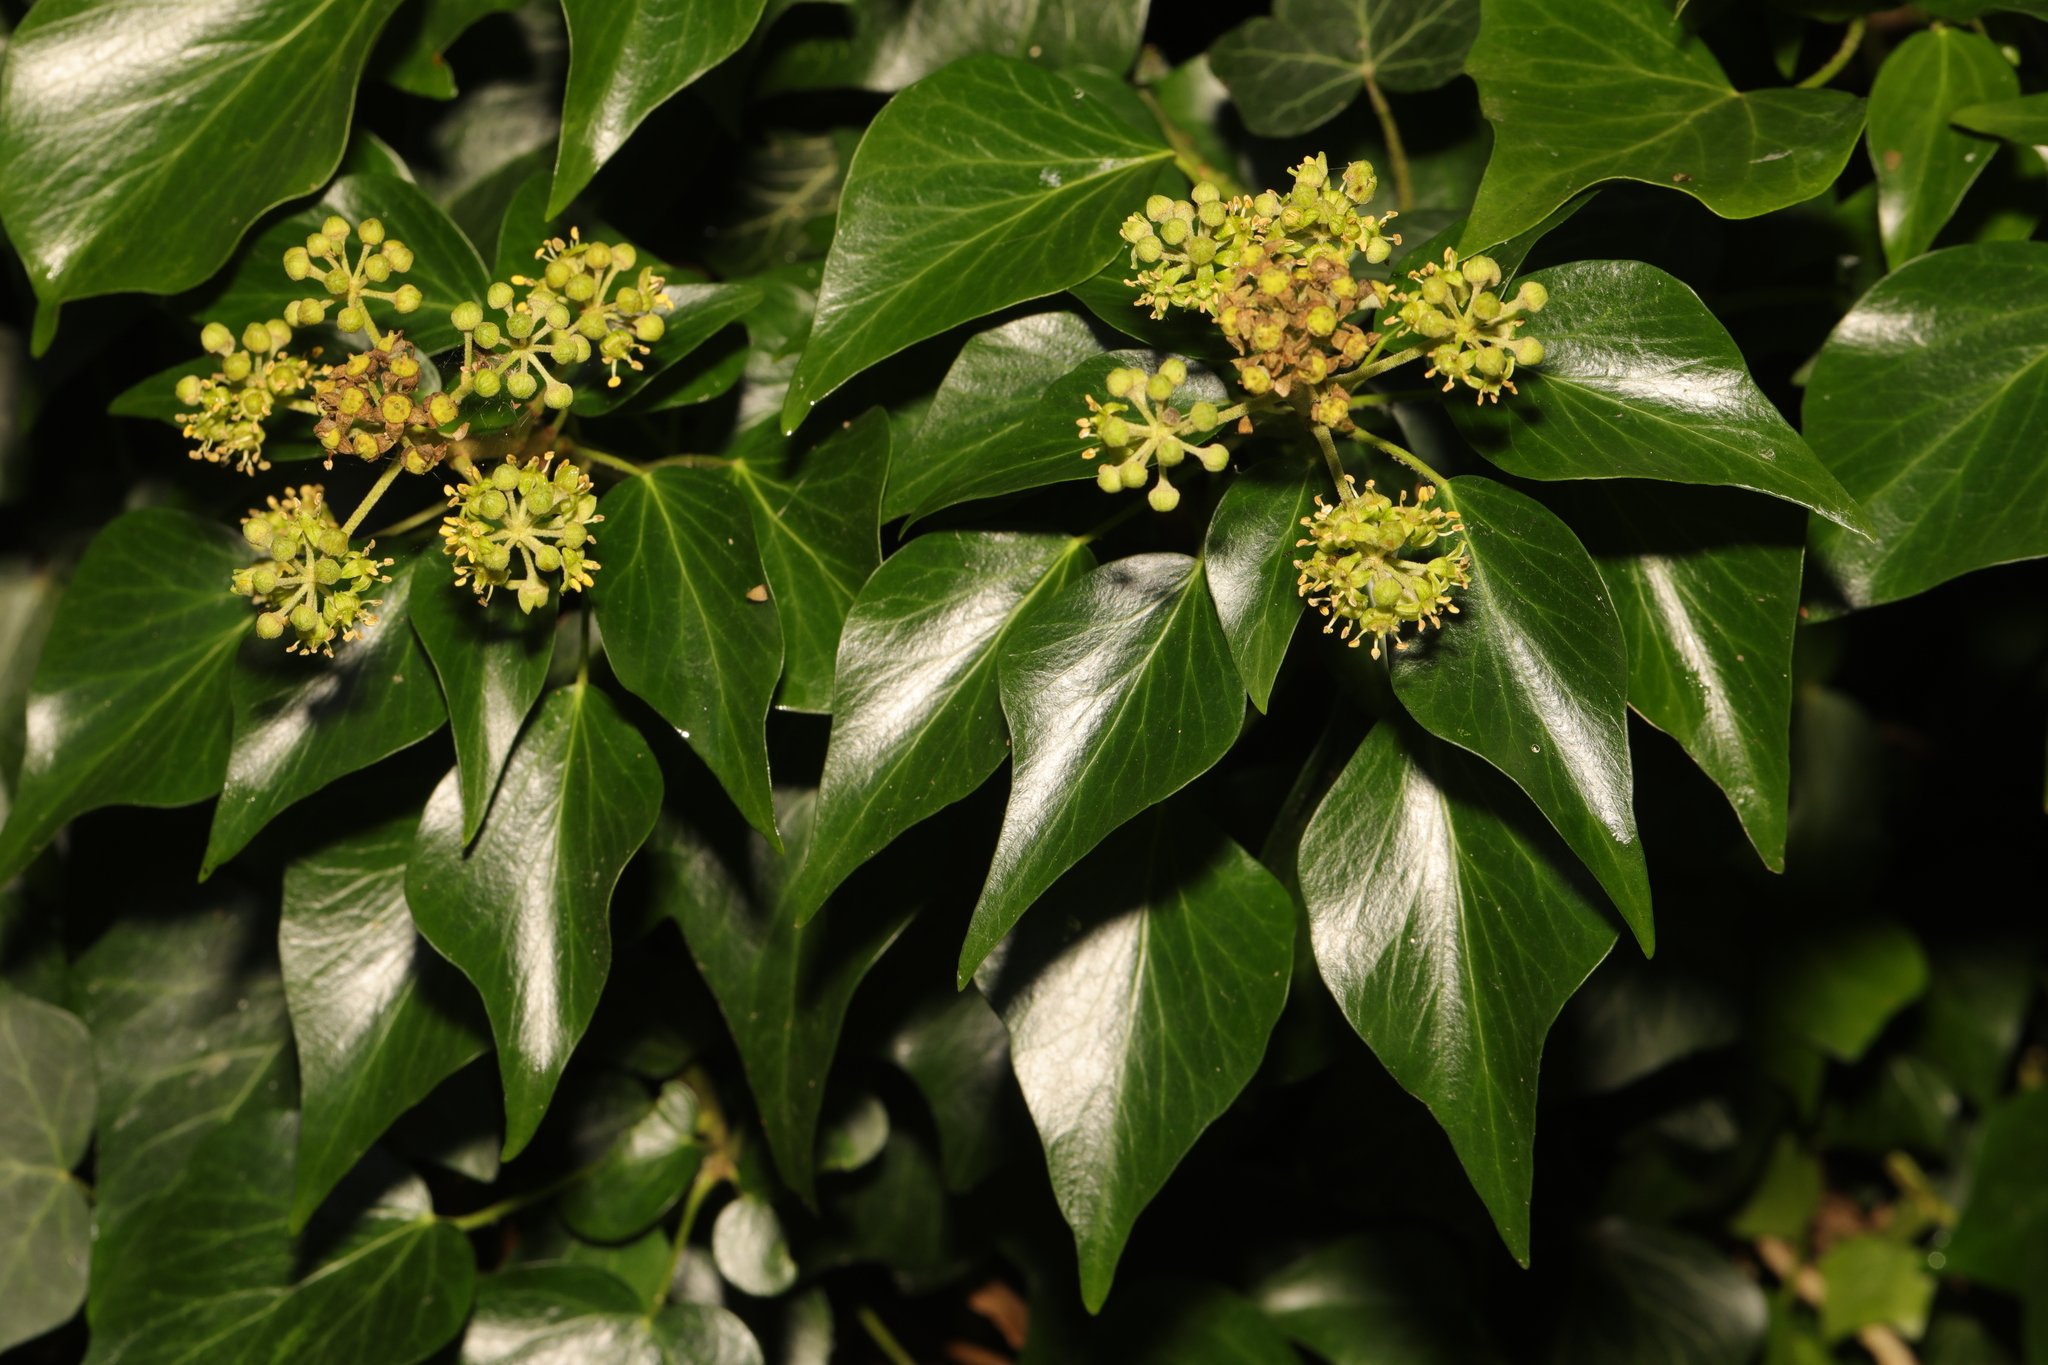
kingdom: Plantae
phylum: Tracheophyta
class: Magnoliopsida
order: Apiales
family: Araliaceae
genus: Hedera
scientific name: Hedera helix
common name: Ivy
